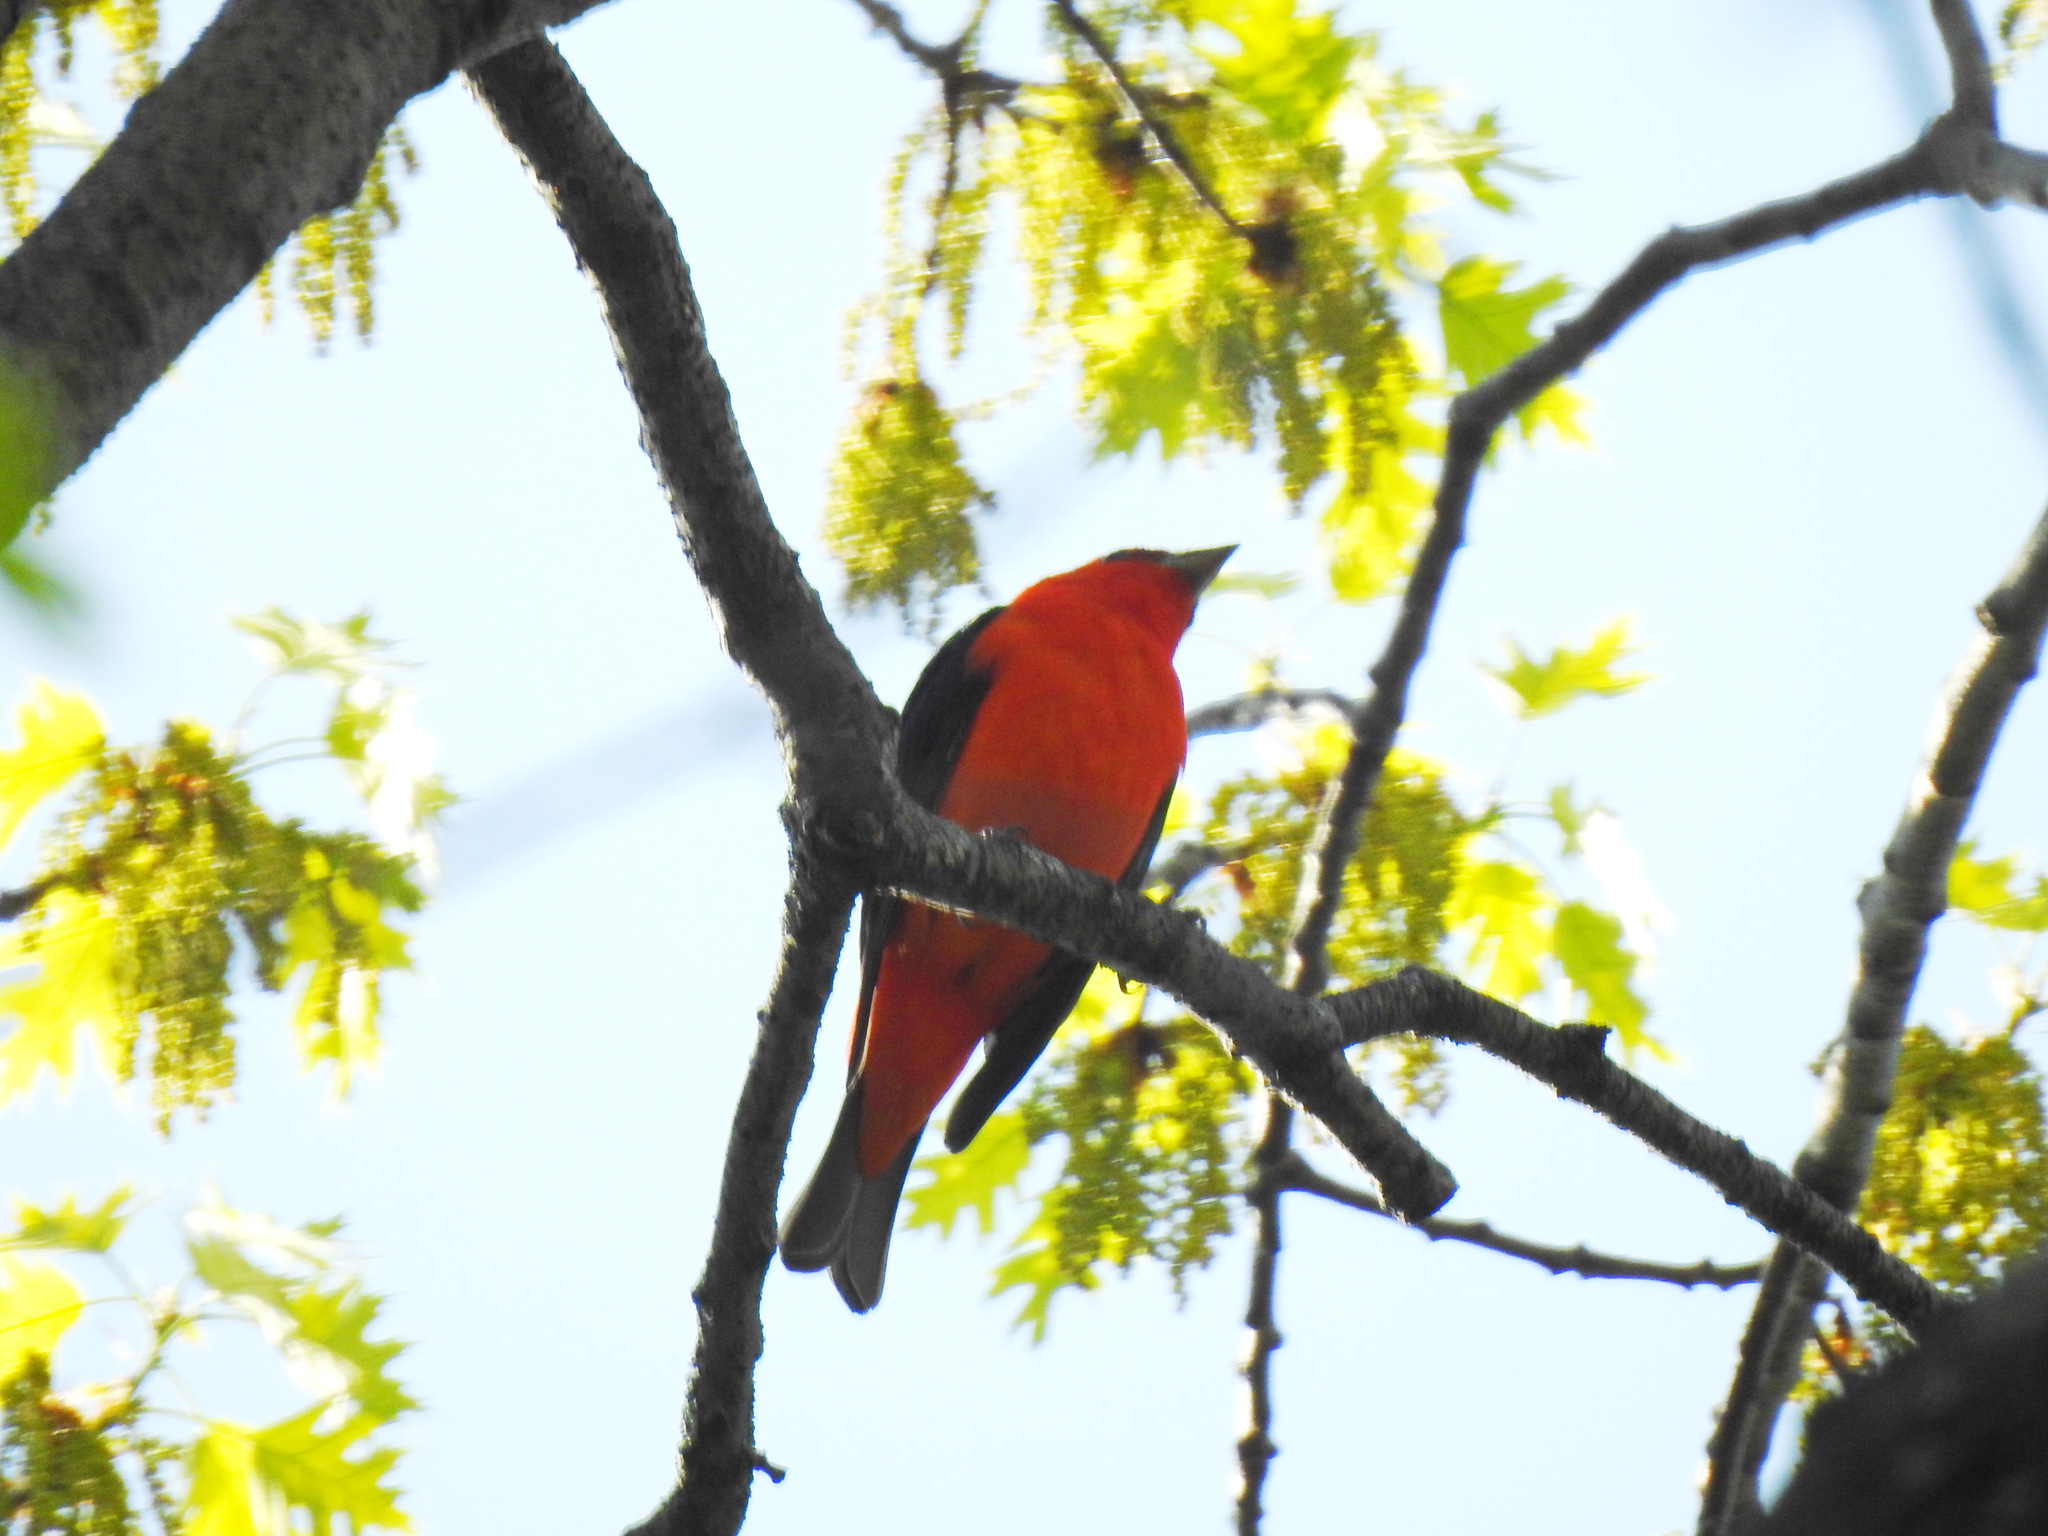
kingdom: Animalia
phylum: Chordata
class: Aves
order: Passeriformes
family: Cardinalidae
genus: Piranga
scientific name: Piranga olivacea
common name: Scarlet tanager
